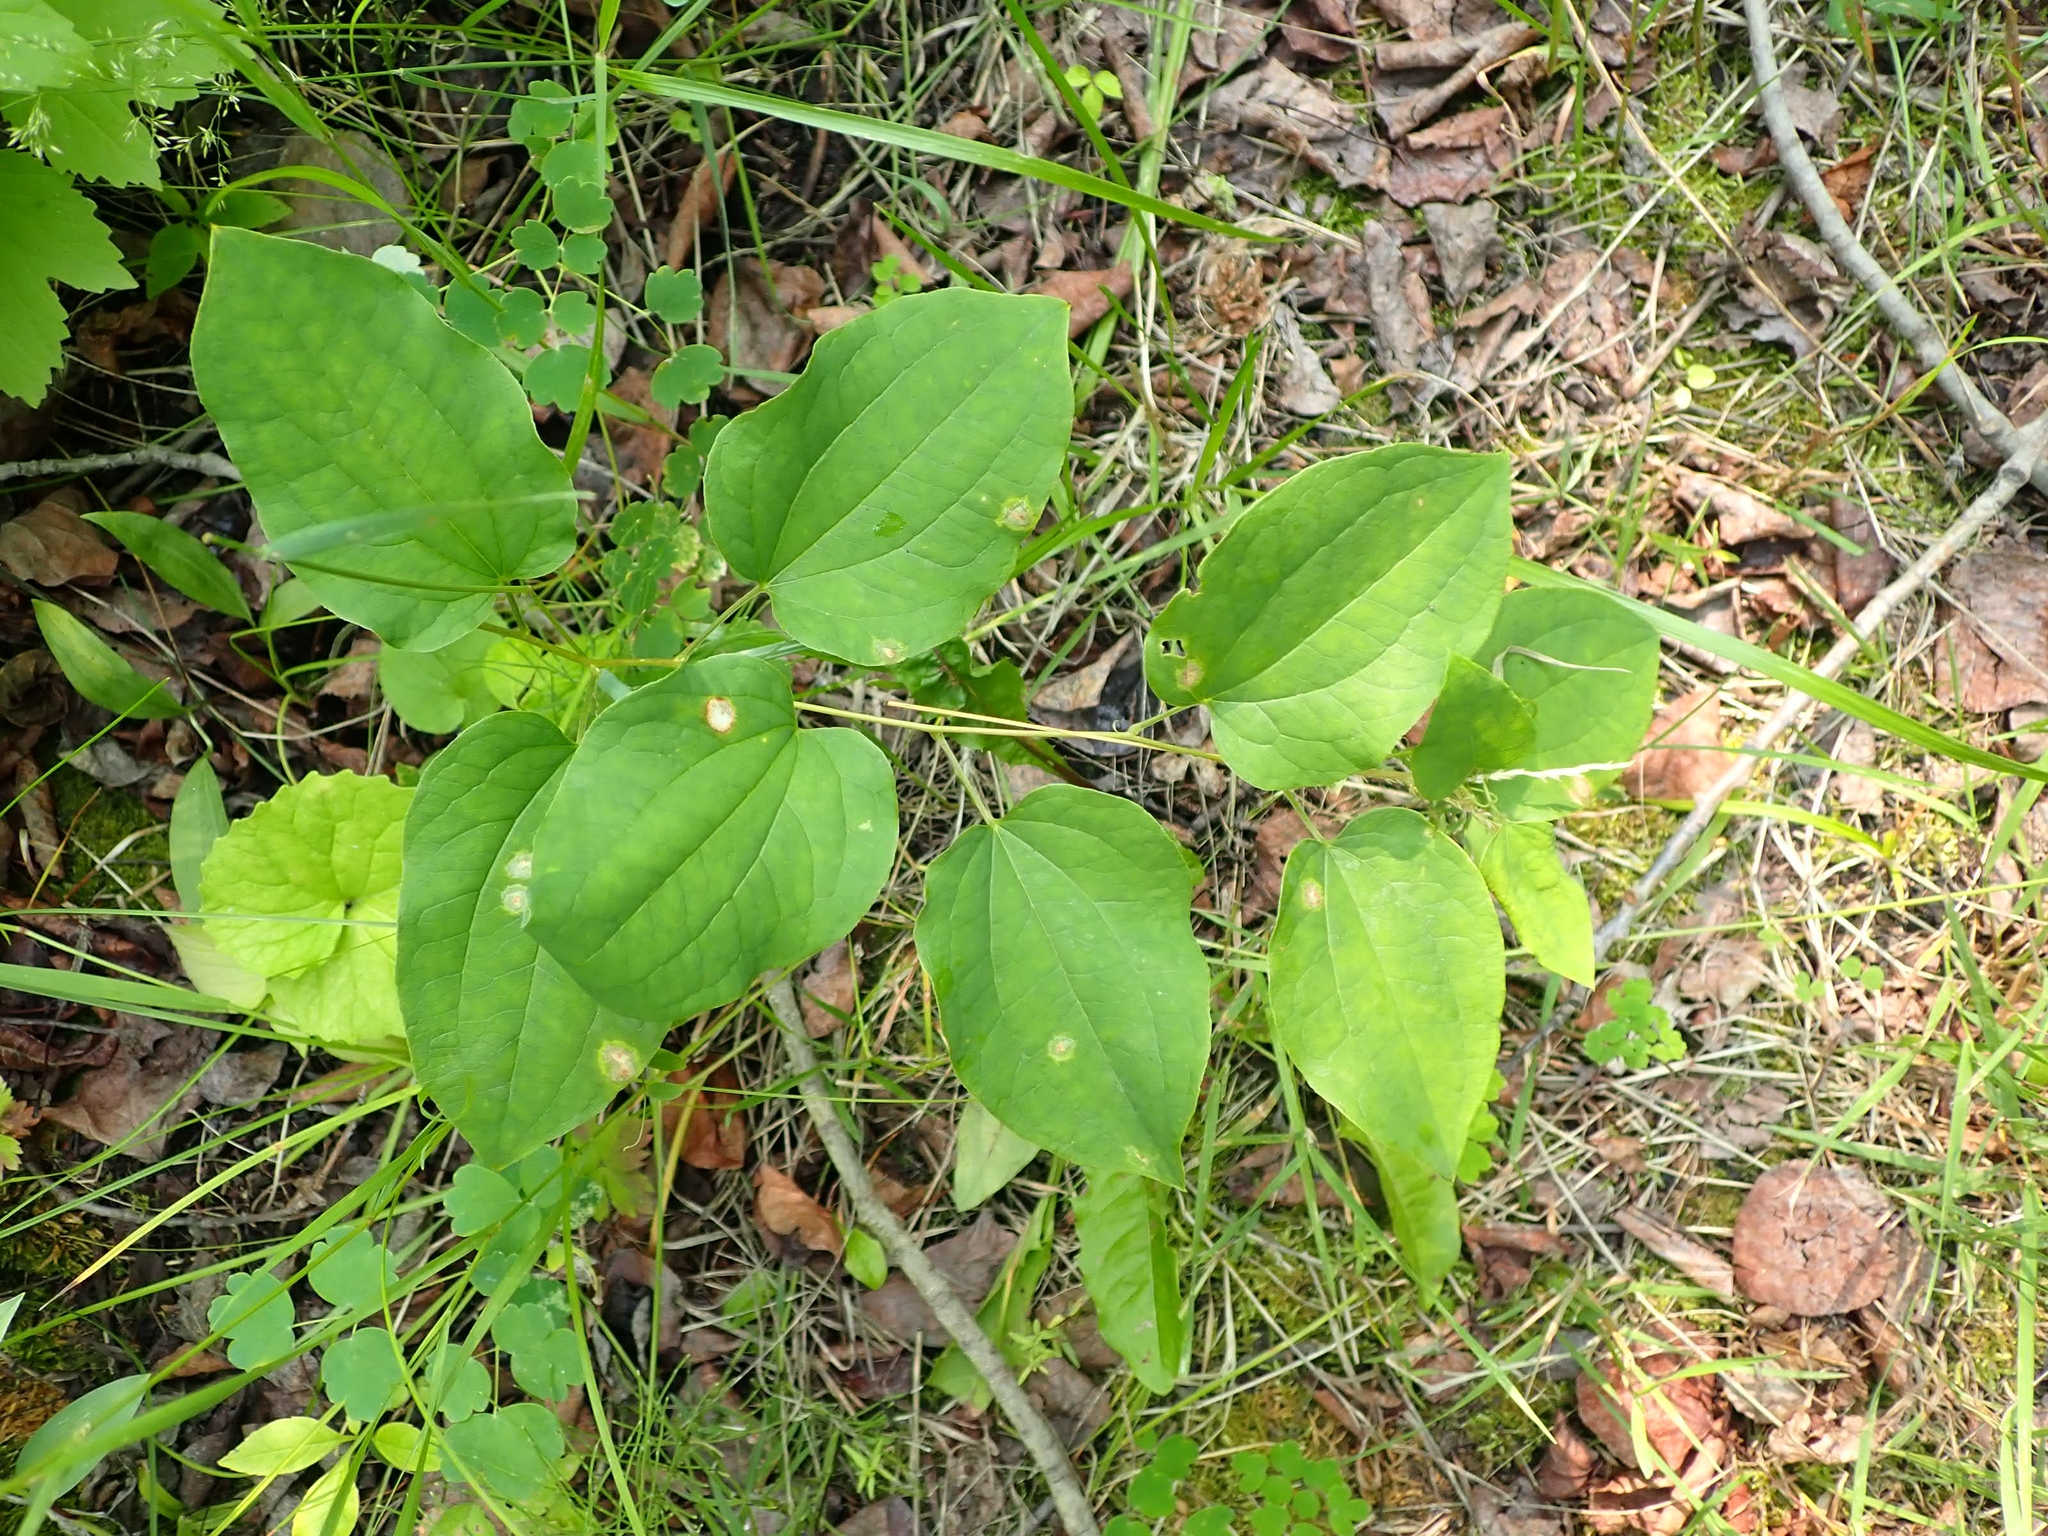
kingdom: Plantae
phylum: Tracheophyta
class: Liliopsida
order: Liliales
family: Smilacaceae
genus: Smilax
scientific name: Smilax lasioneura
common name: Blue ridge carrionflower
